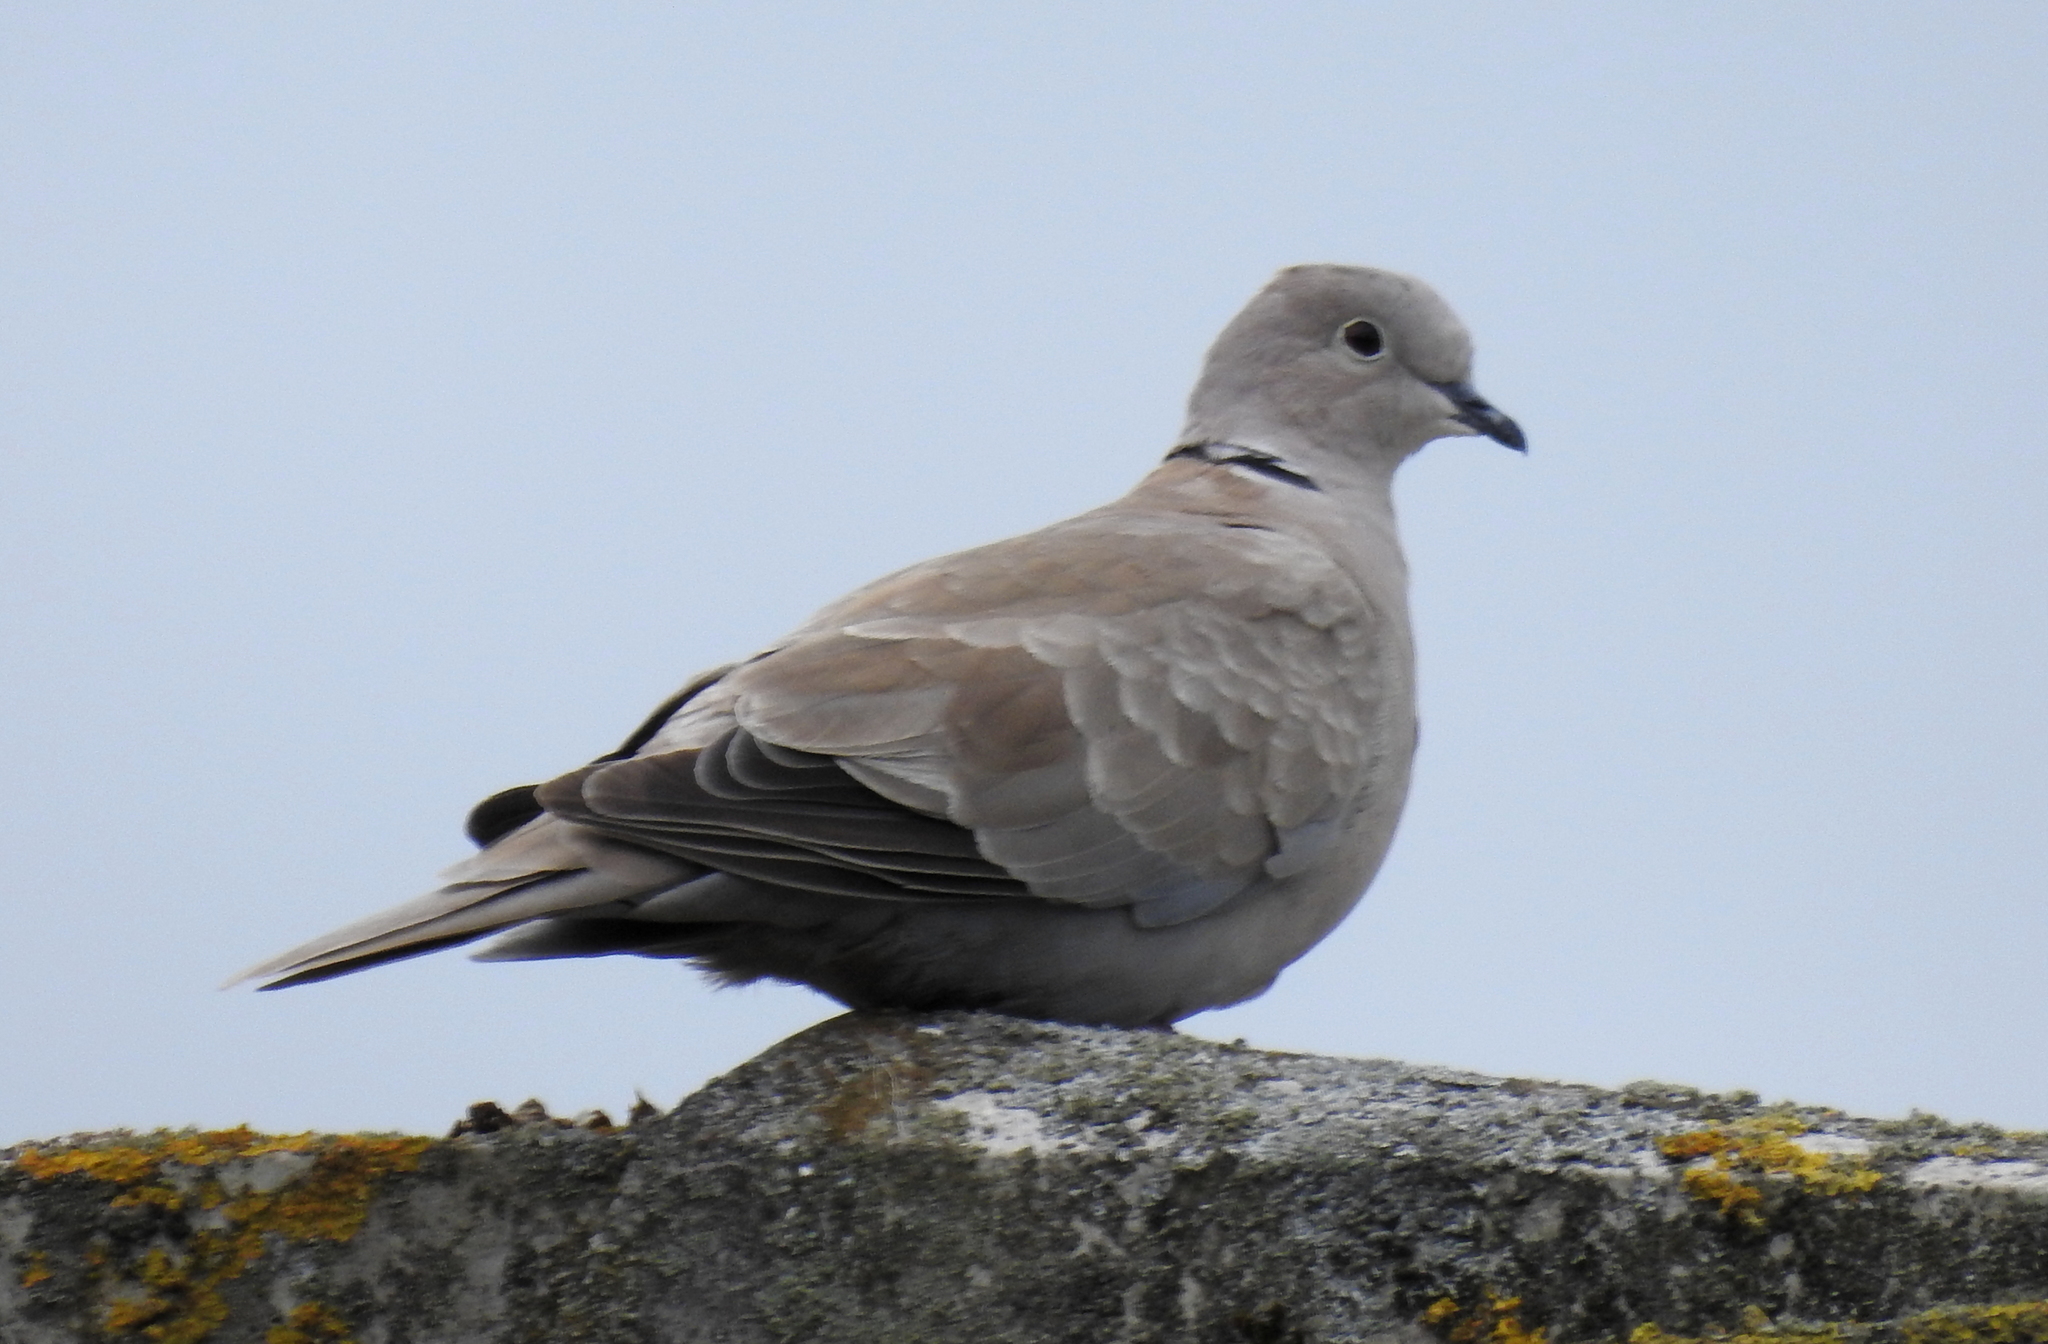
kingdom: Animalia
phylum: Chordata
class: Aves
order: Columbiformes
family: Columbidae
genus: Streptopelia
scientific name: Streptopelia decaocto
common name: Eurasian collared dove
